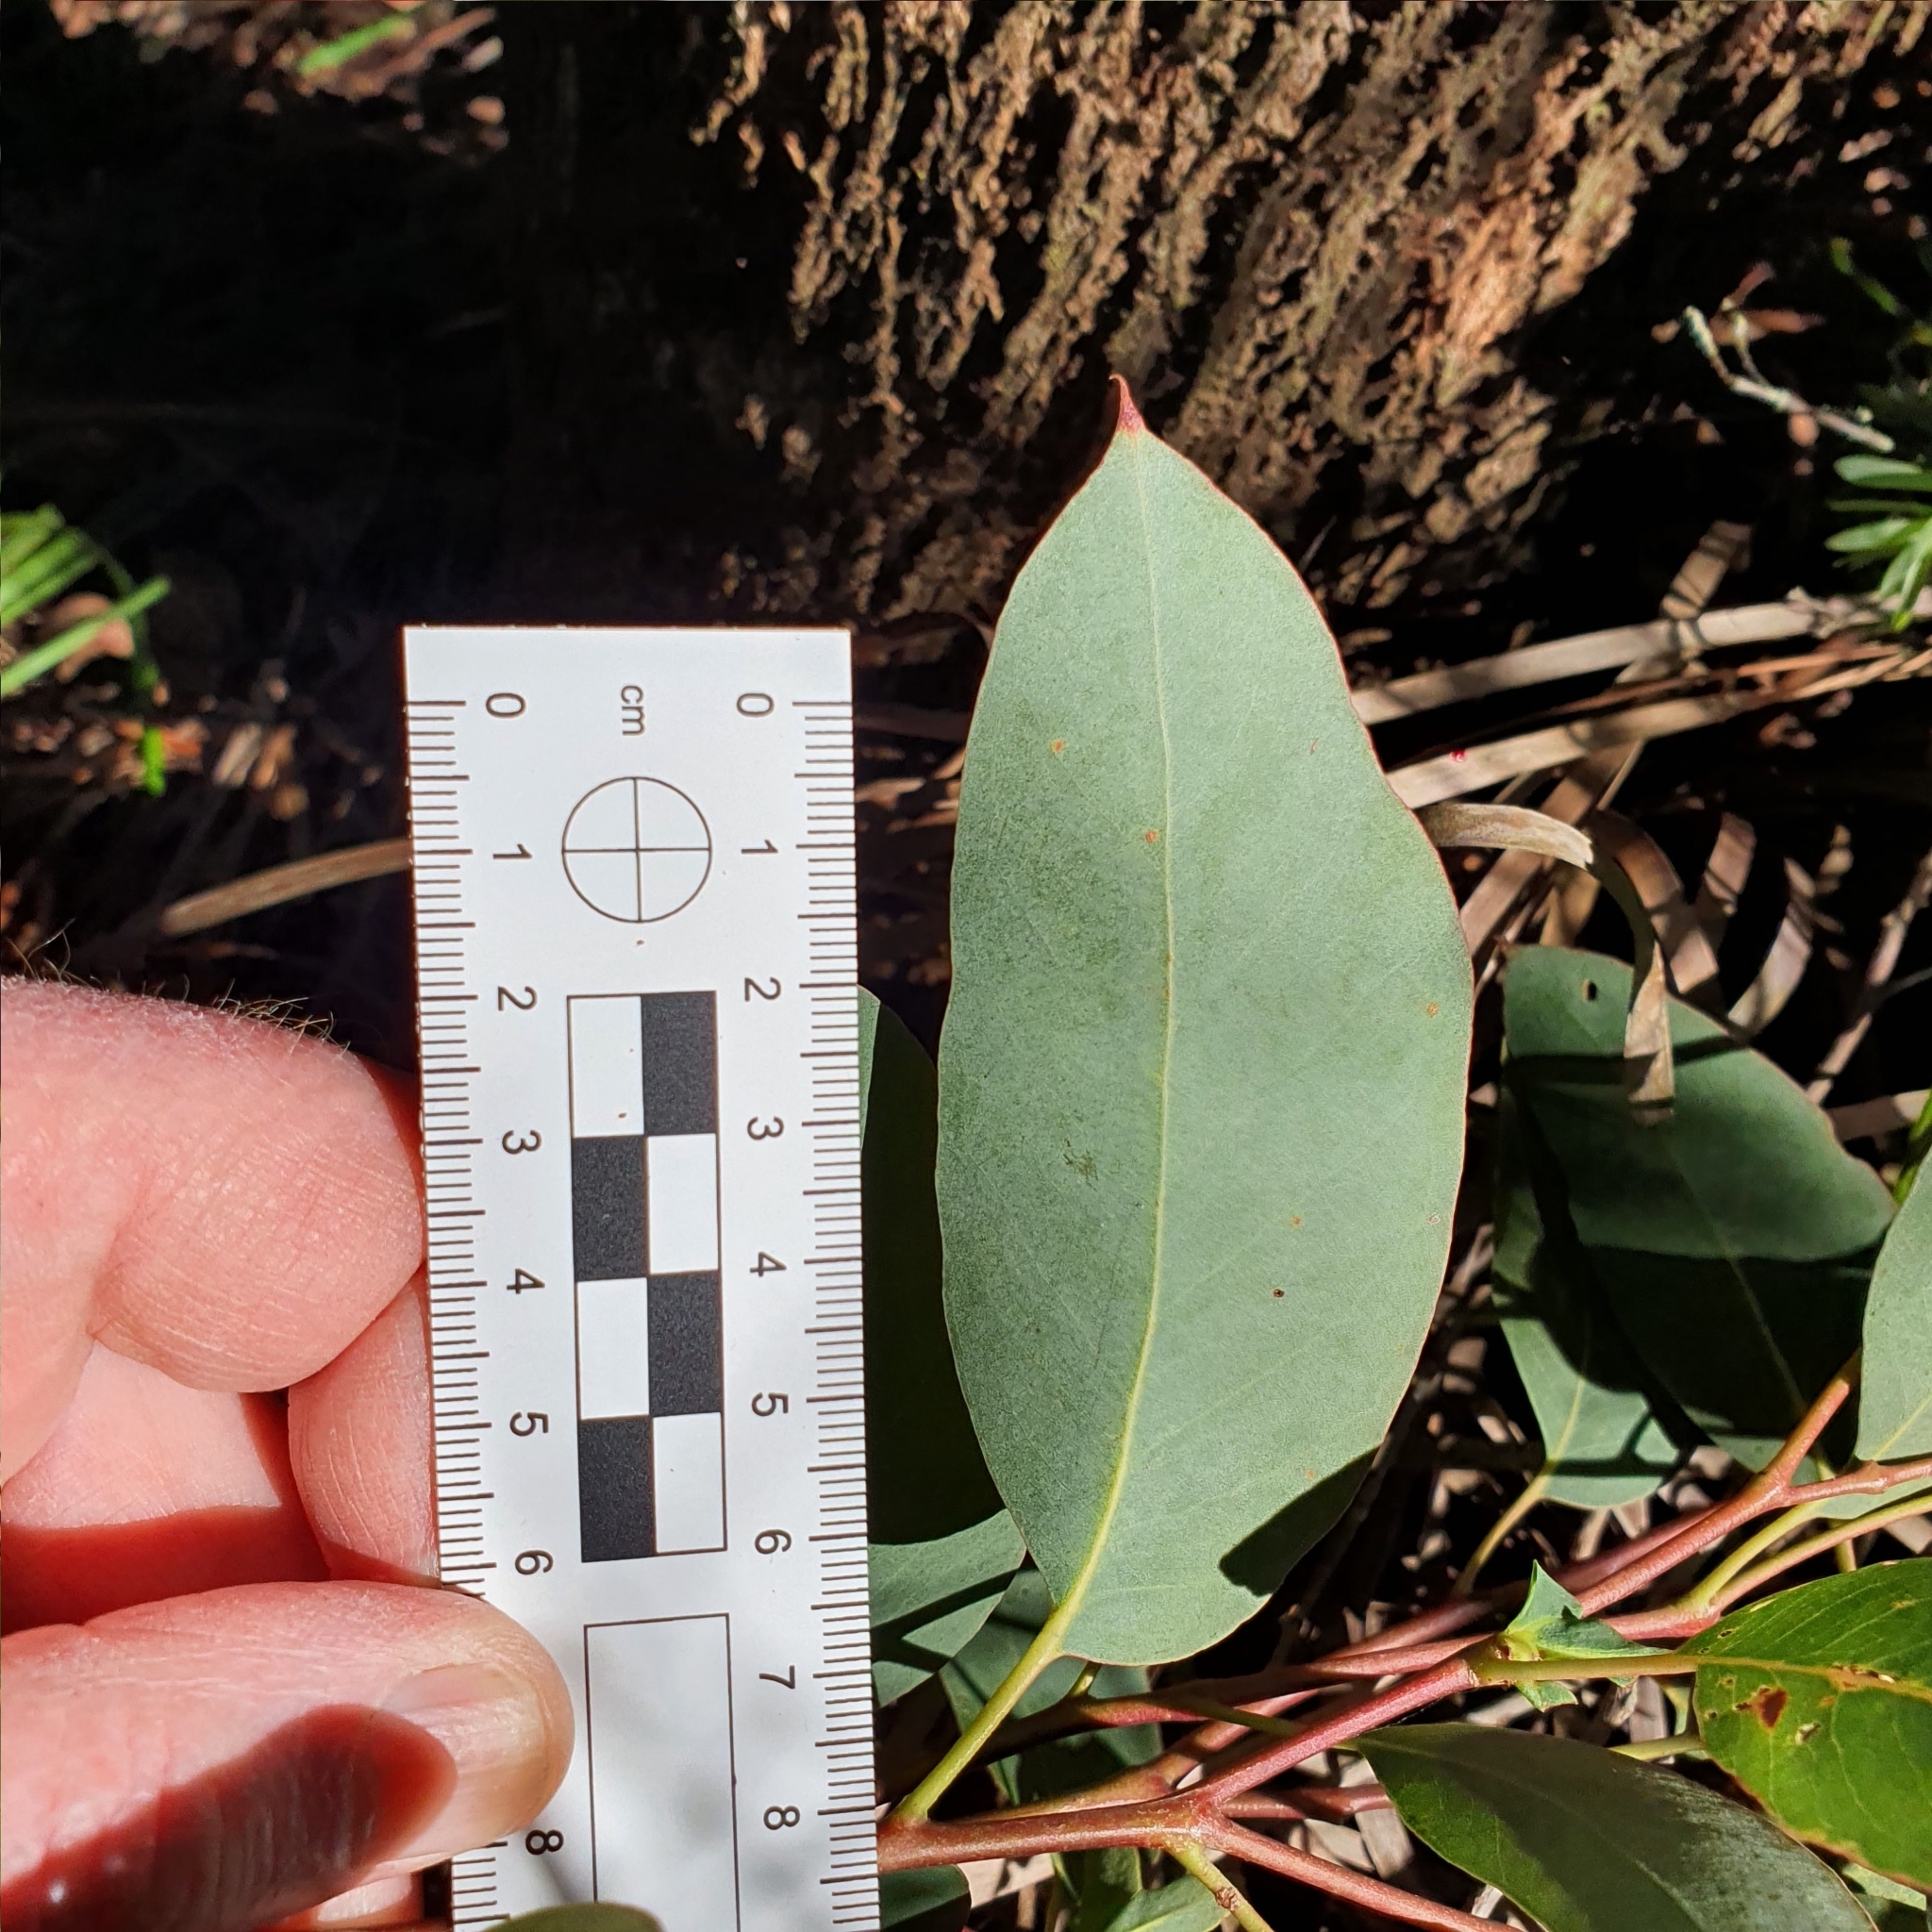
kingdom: Plantae
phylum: Tracheophyta
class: Magnoliopsida
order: Myrtales
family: Myrtaceae
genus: Eucalyptus
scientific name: Eucalyptus piperita
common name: Sydney peppermint
